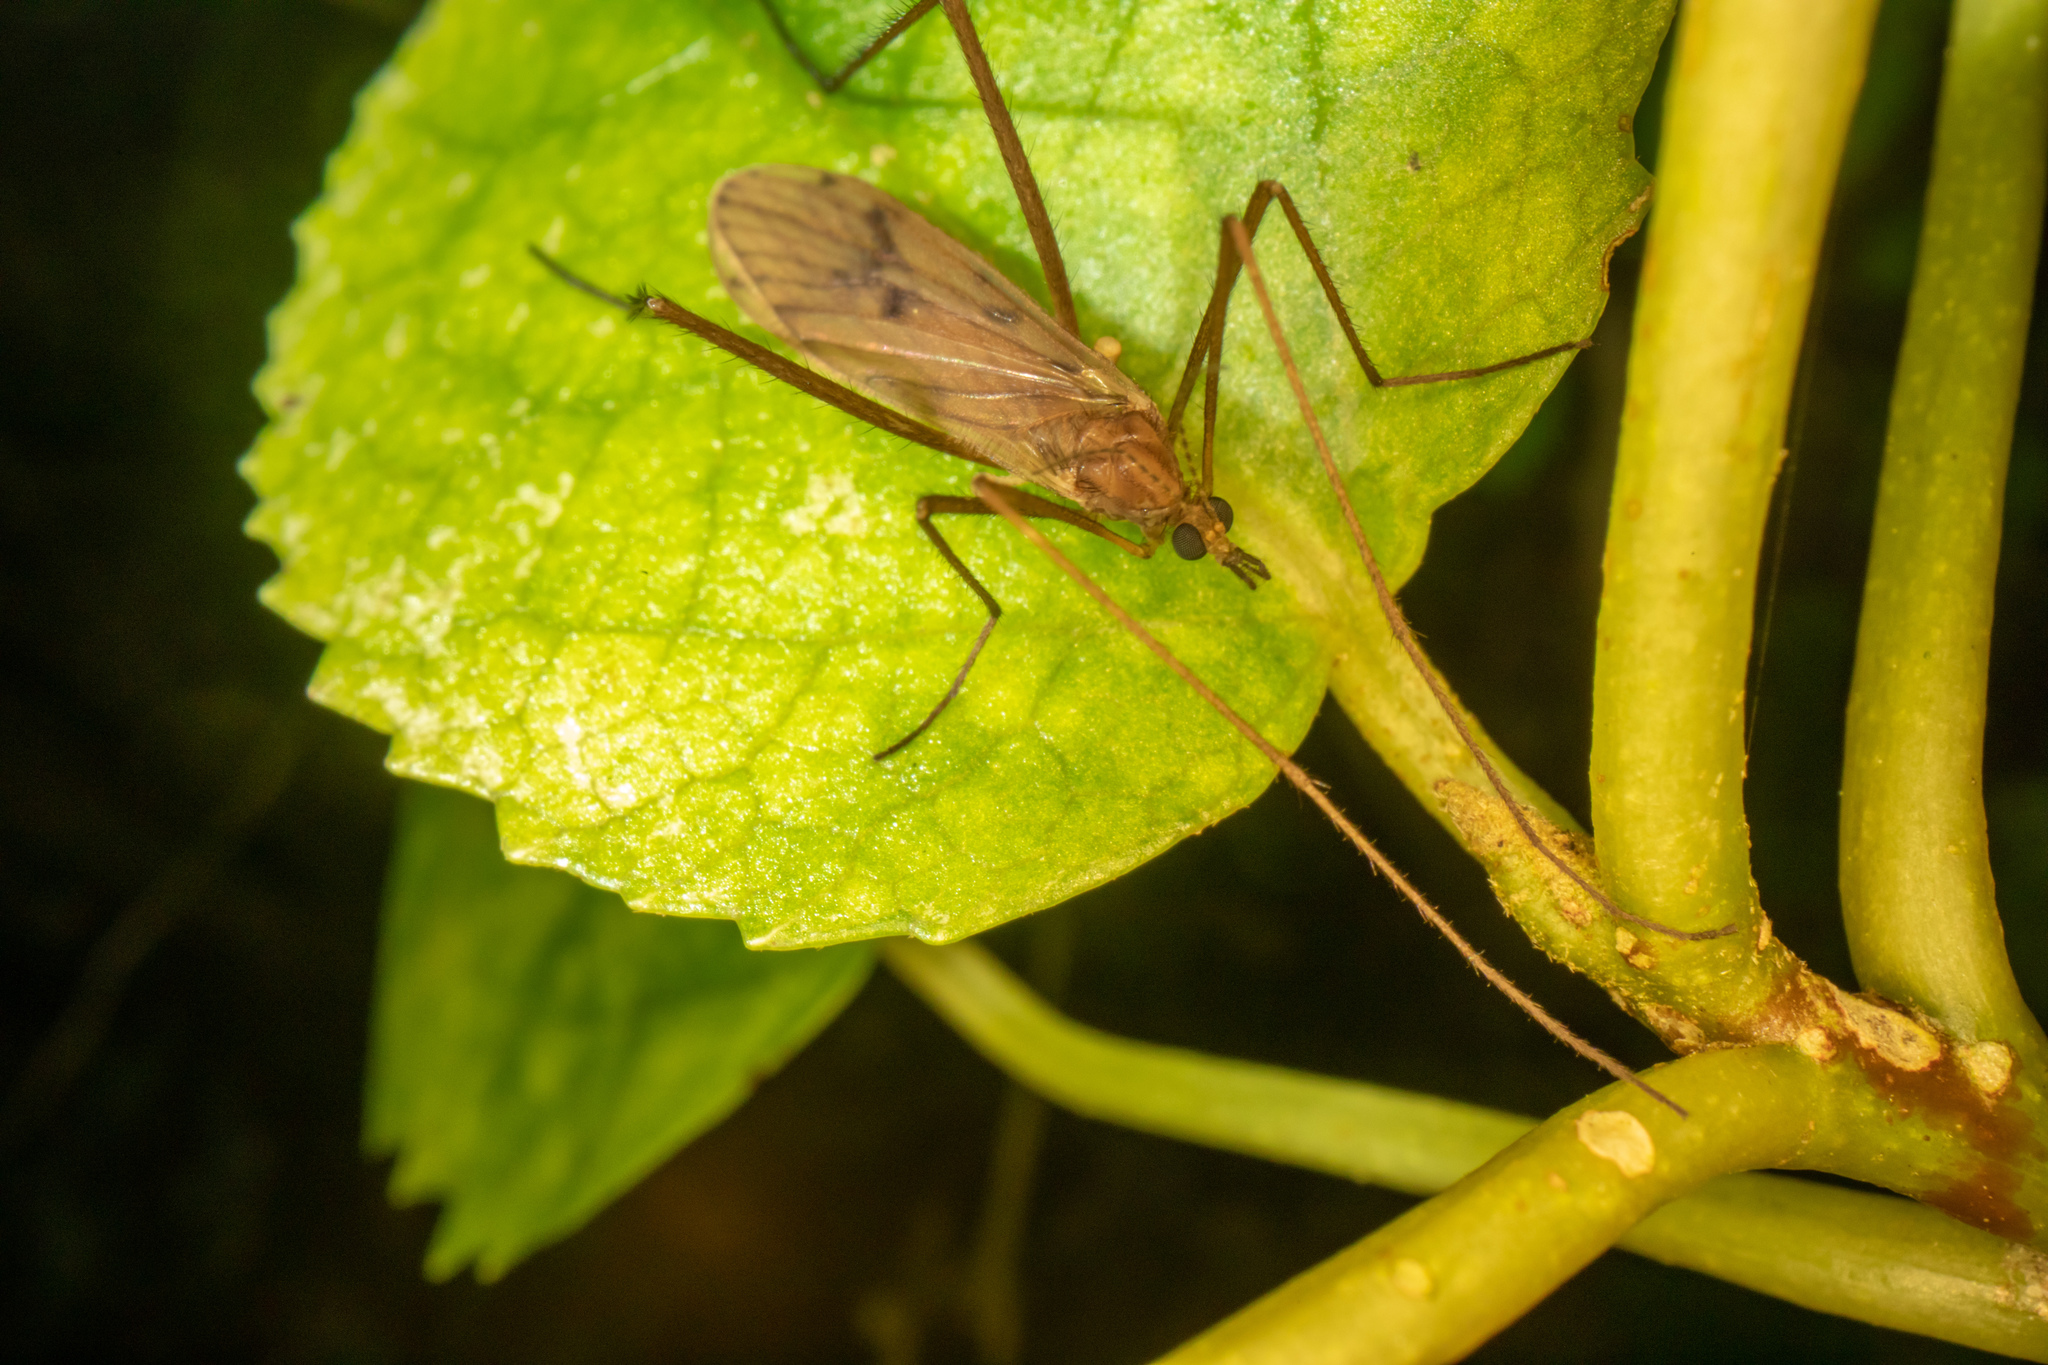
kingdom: Animalia
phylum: Arthropoda
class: Insecta
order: Diptera
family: Limoniidae
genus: Amphineurus
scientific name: Amphineurus insulsus
